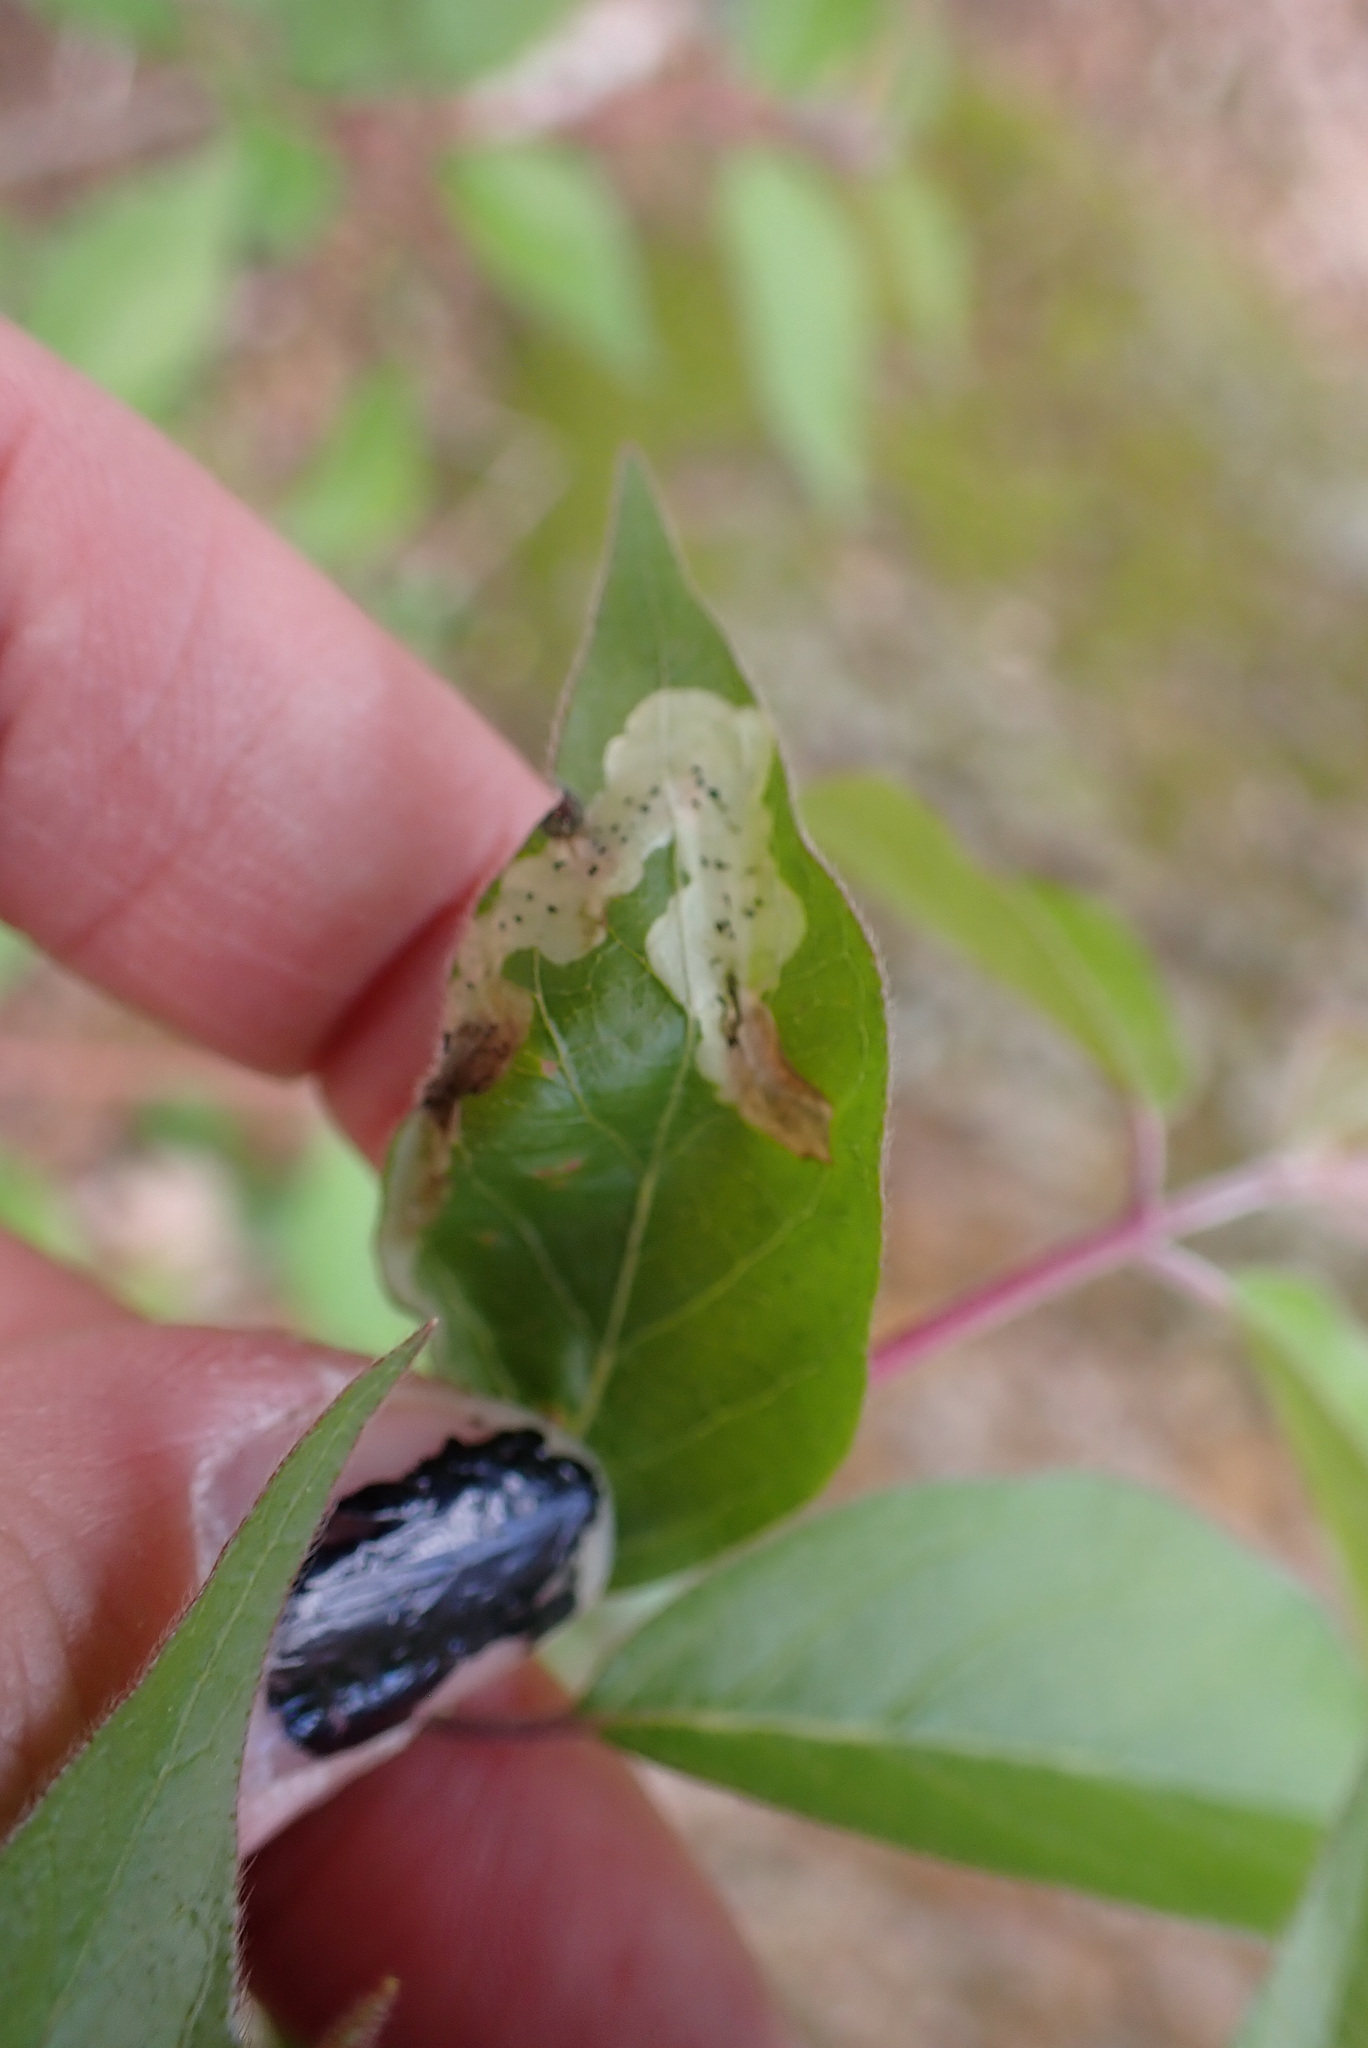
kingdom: Animalia
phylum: Arthropoda
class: Insecta
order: Diptera
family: Agromyzidae
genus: Aulagromyza
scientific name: Aulagromyza cornigera
